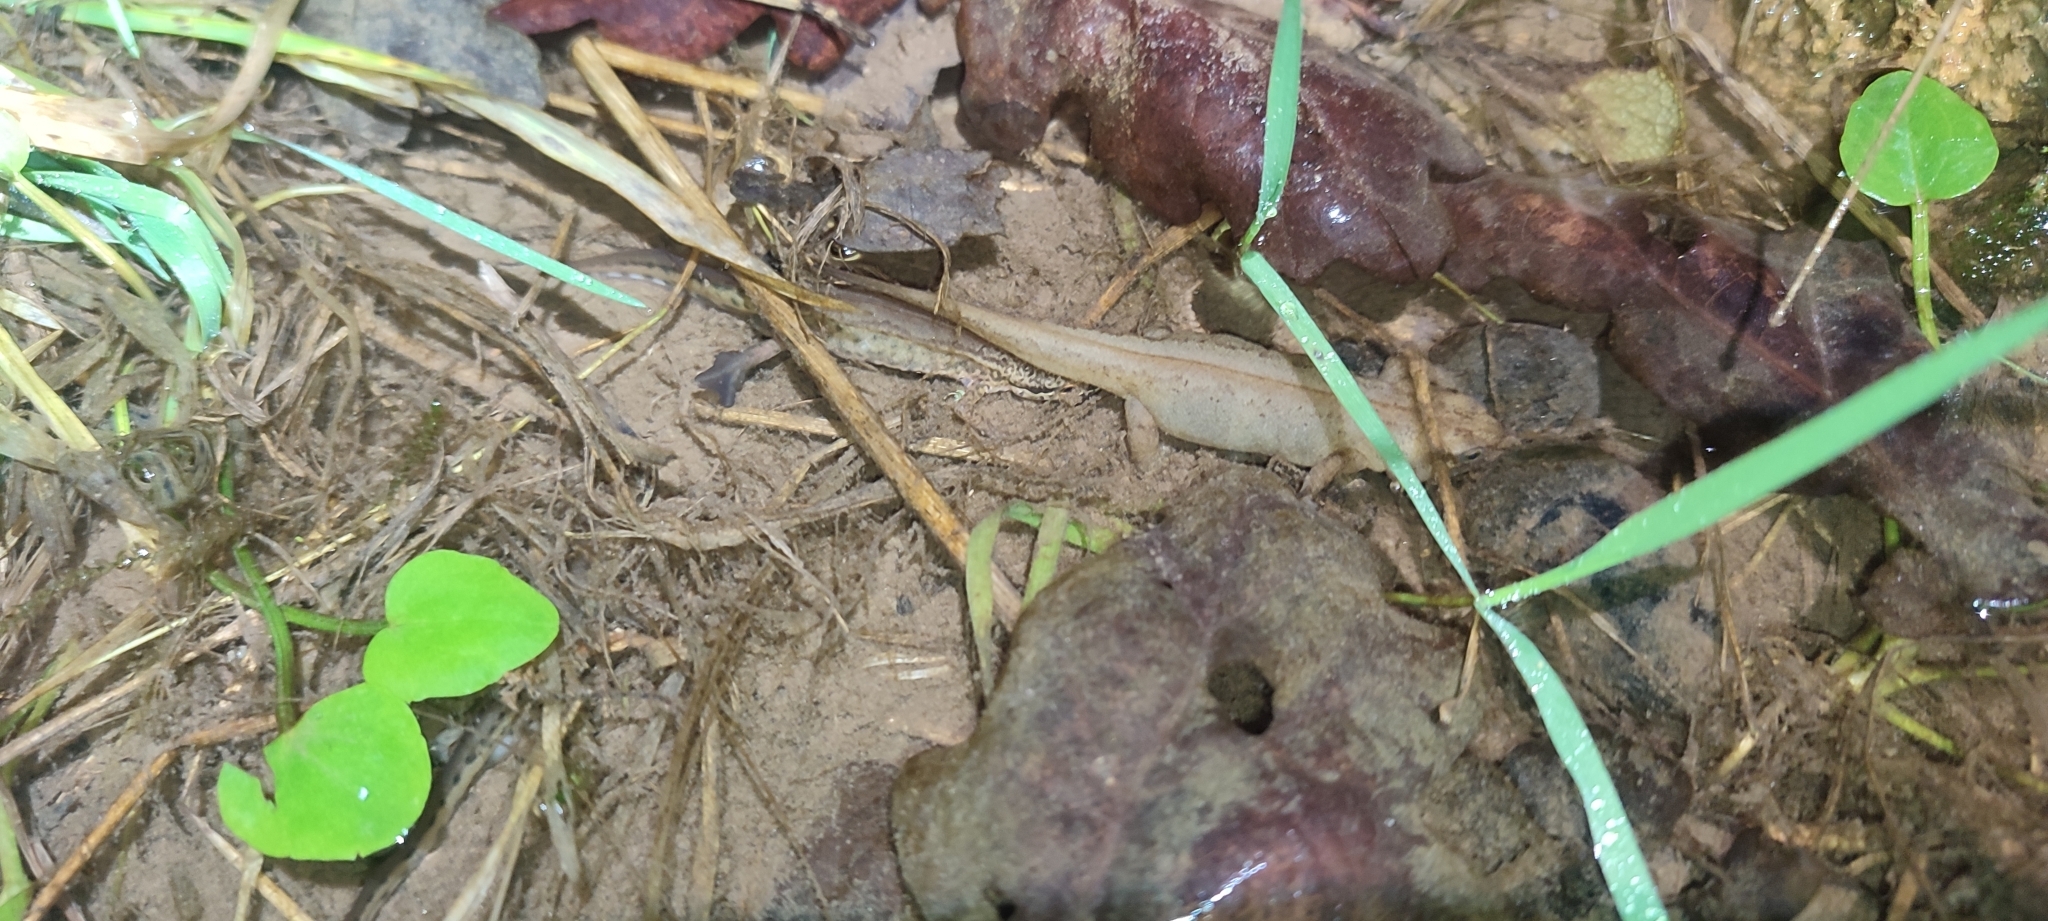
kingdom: Animalia
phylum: Chordata
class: Amphibia
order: Caudata
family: Salamandridae
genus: Lissotriton
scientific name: Lissotriton helveticus
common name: Palmate newt
